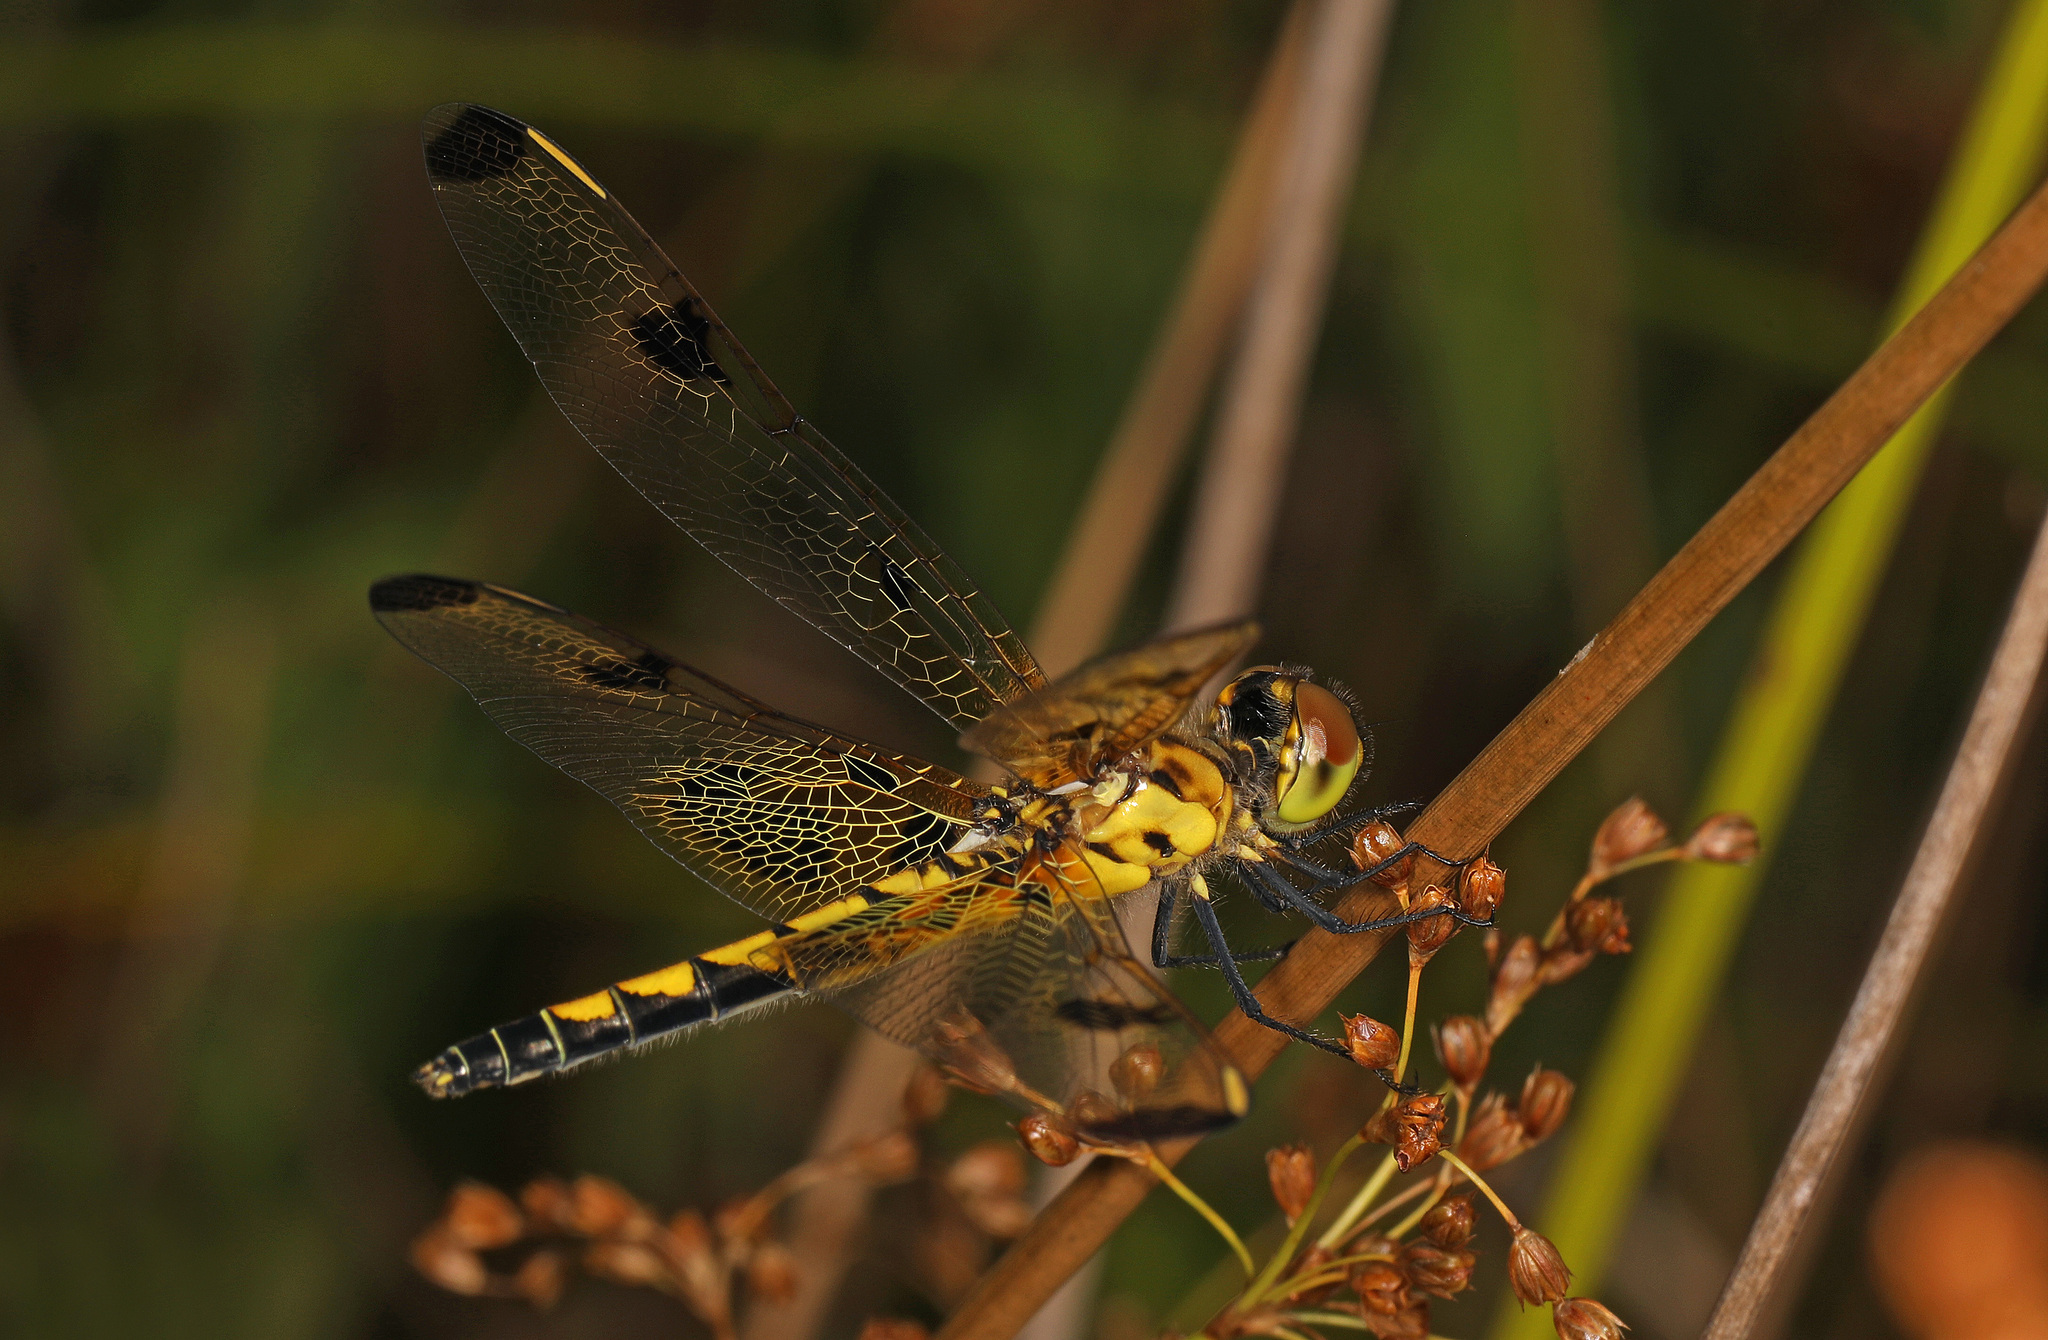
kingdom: Animalia
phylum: Arthropoda
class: Insecta
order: Odonata
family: Libellulidae
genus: Celithemis
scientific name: Celithemis elisa
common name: Calico pennant
